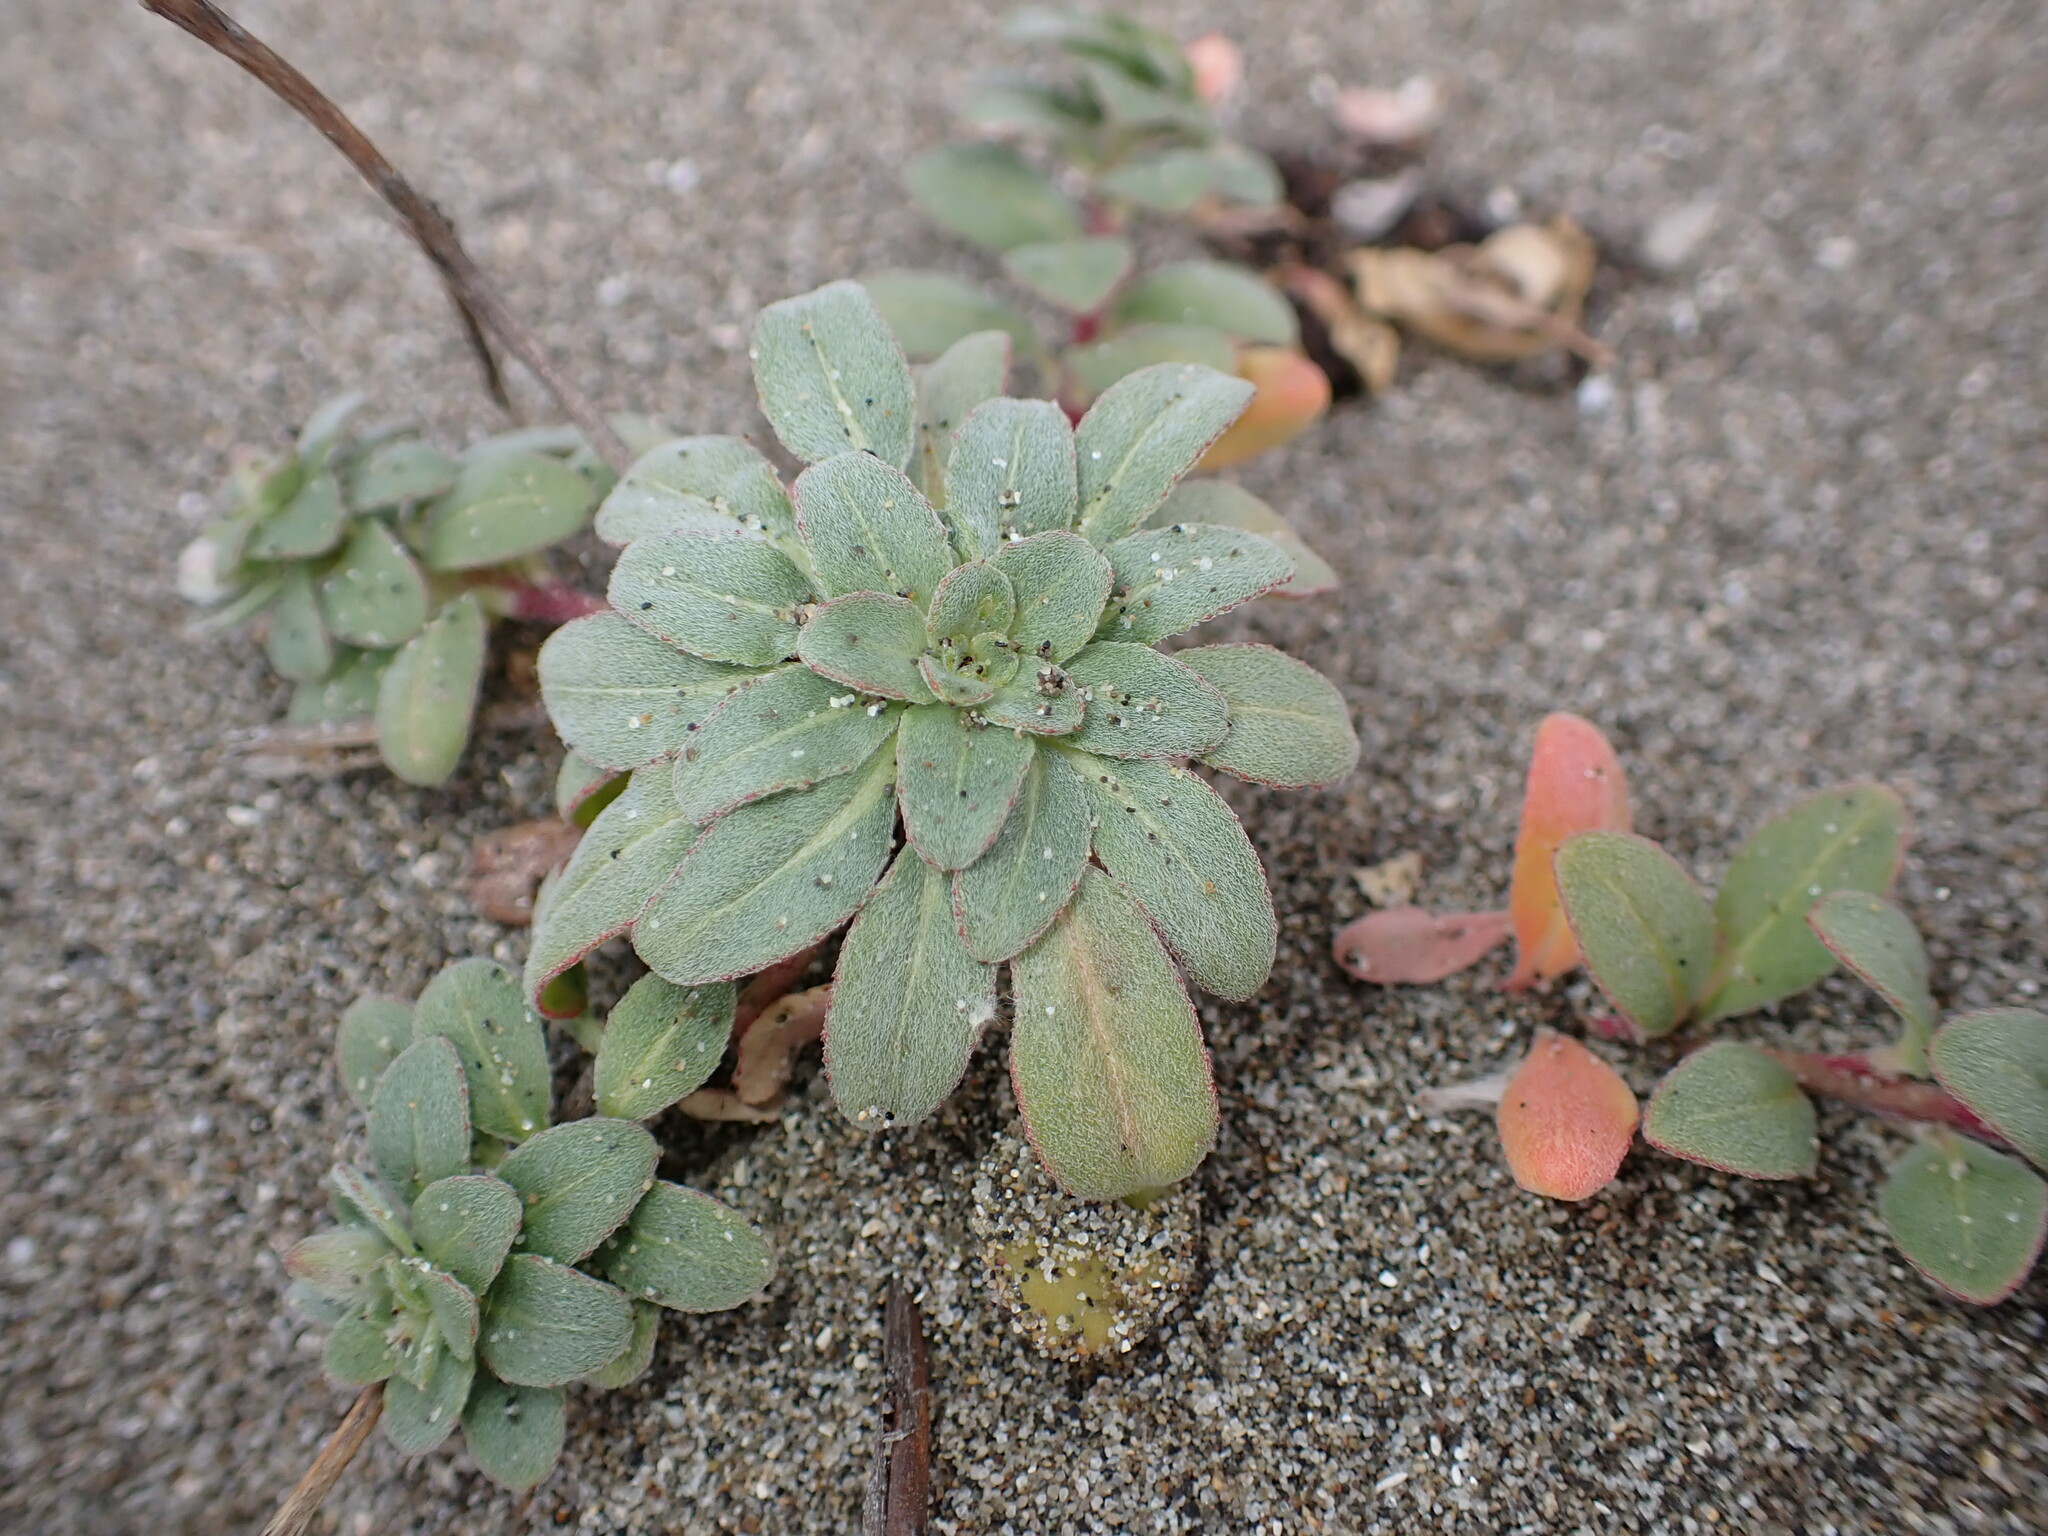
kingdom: Plantae
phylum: Tracheophyta
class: Magnoliopsida
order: Myrtales
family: Onagraceae
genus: Camissoniopsis
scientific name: Camissoniopsis cheiranthifolia
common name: Beach suncup
